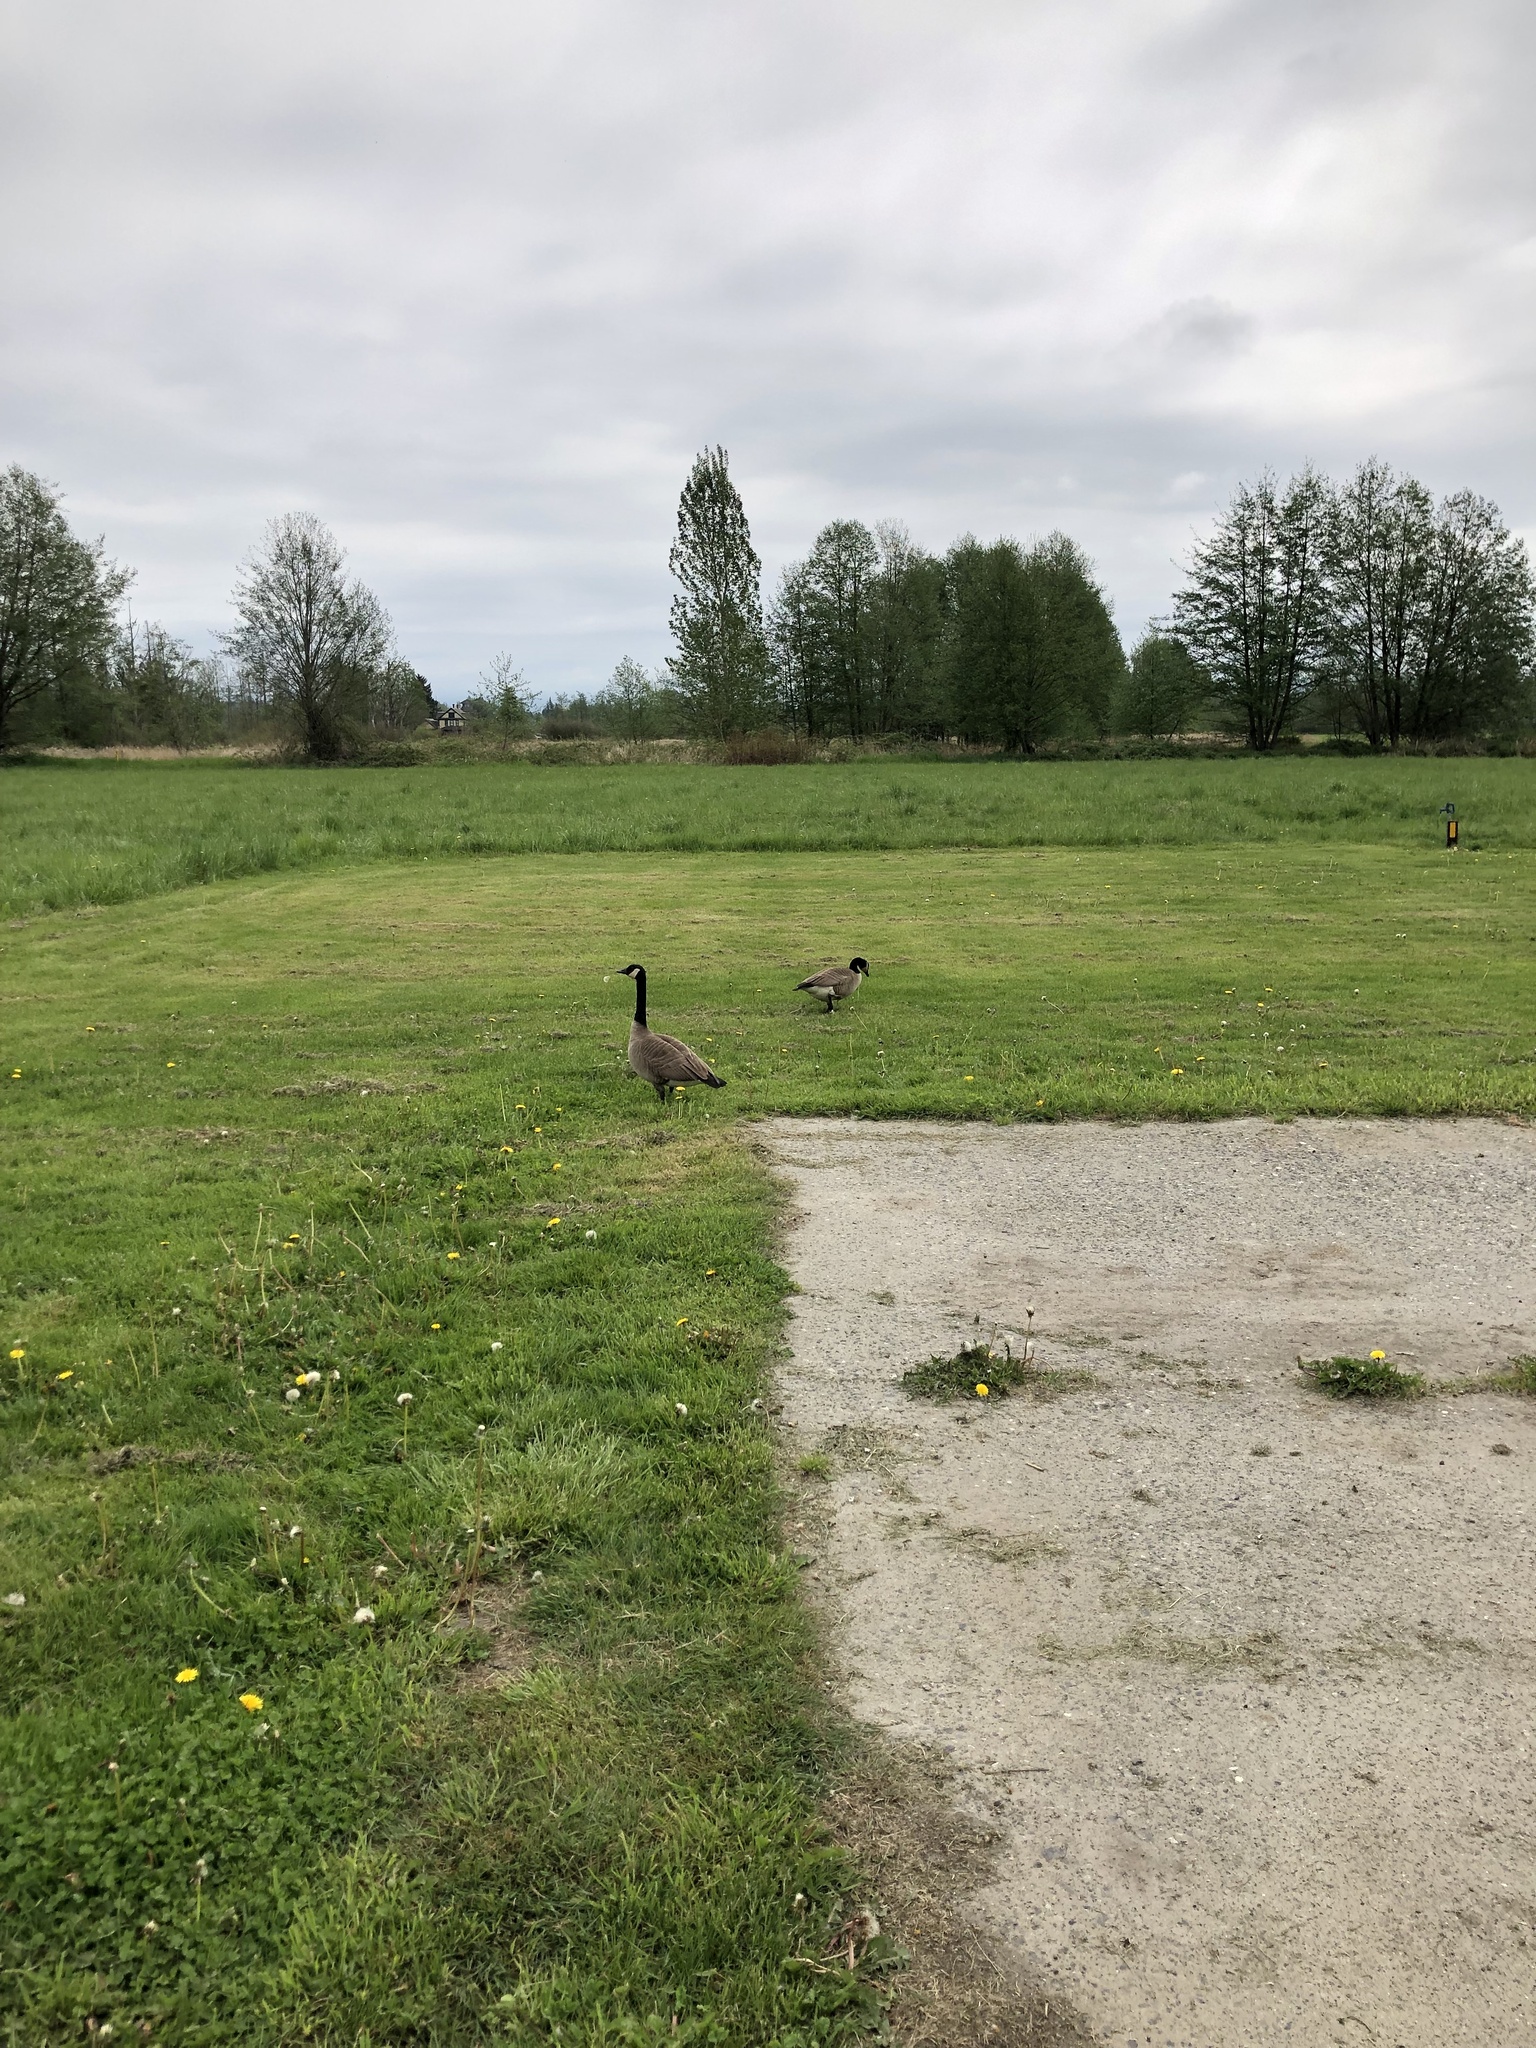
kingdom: Animalia
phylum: Chordata
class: Aves
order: Anseriformes
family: Anatidae
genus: Branta
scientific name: Branta canadensis
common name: Canada goose
